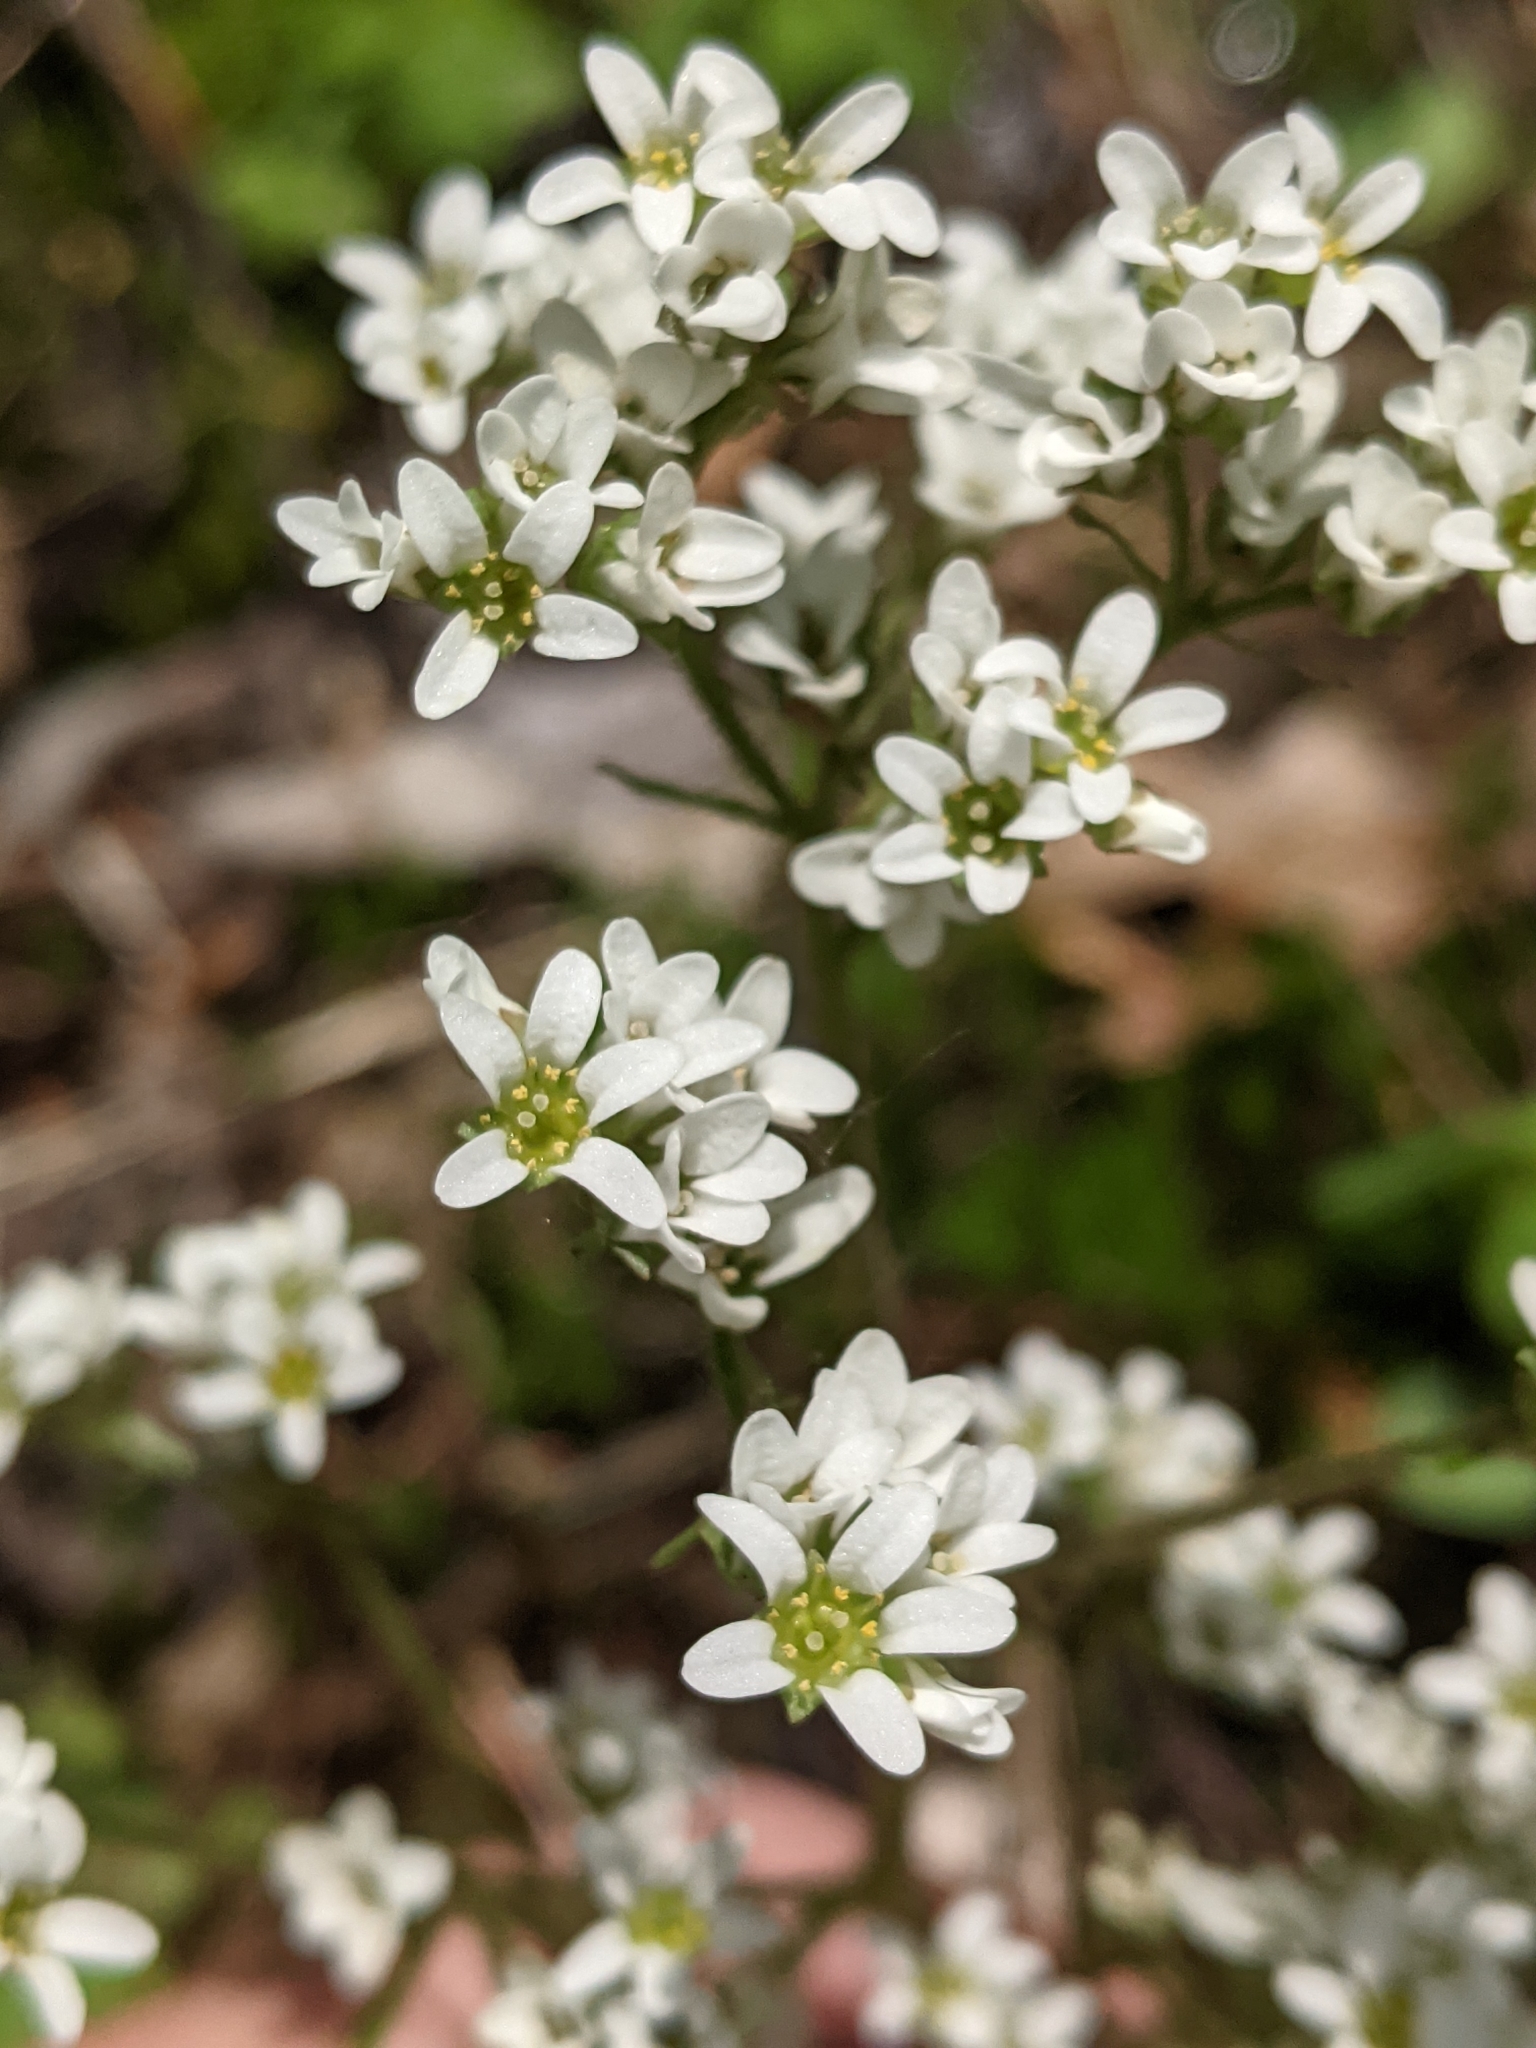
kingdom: Plantae
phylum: Tracheophyta
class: Magnoliopsida
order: Saxifragales
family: Saxifragaceae
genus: Micranthes
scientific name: Micranthes virginiensis
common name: Early saxifrage
